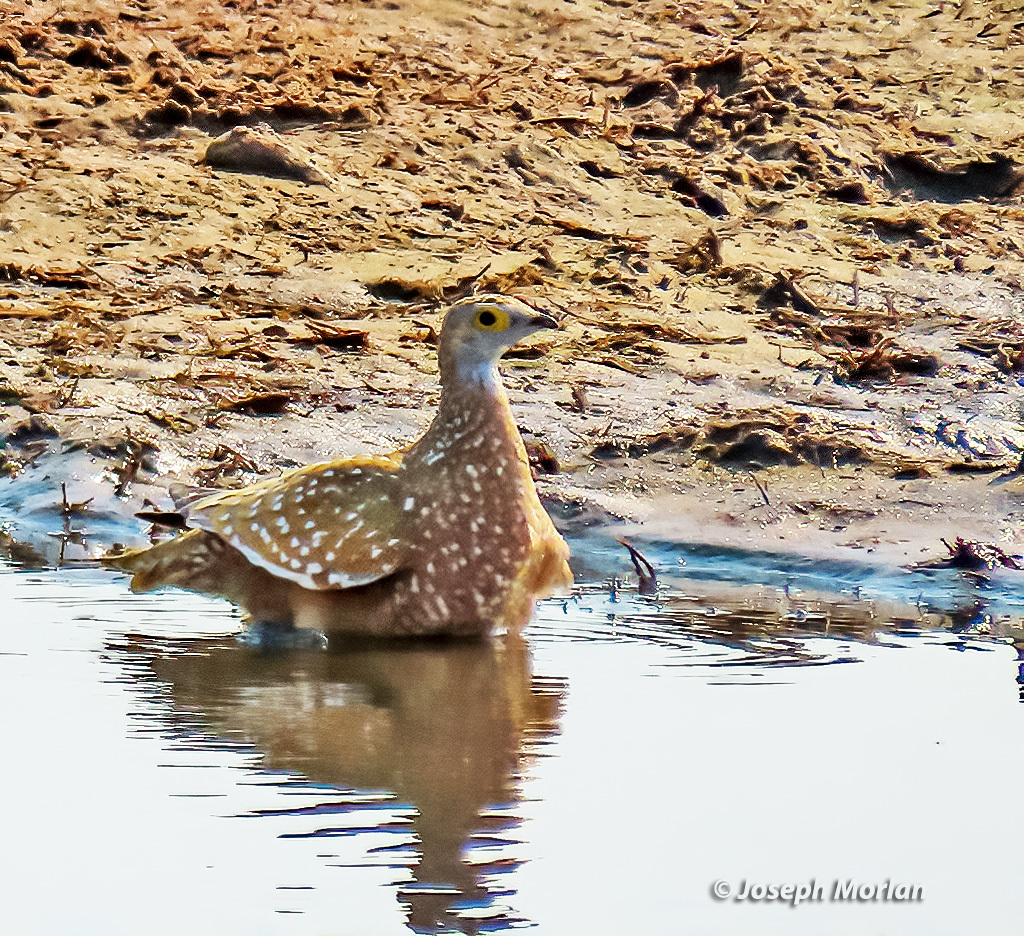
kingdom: Animalia
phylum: Chordata
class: Aves
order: Pteroclidiformes
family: Pteroclididae
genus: Pterocles
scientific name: Pterocles burchelli
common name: Burchell's sandgrouse
